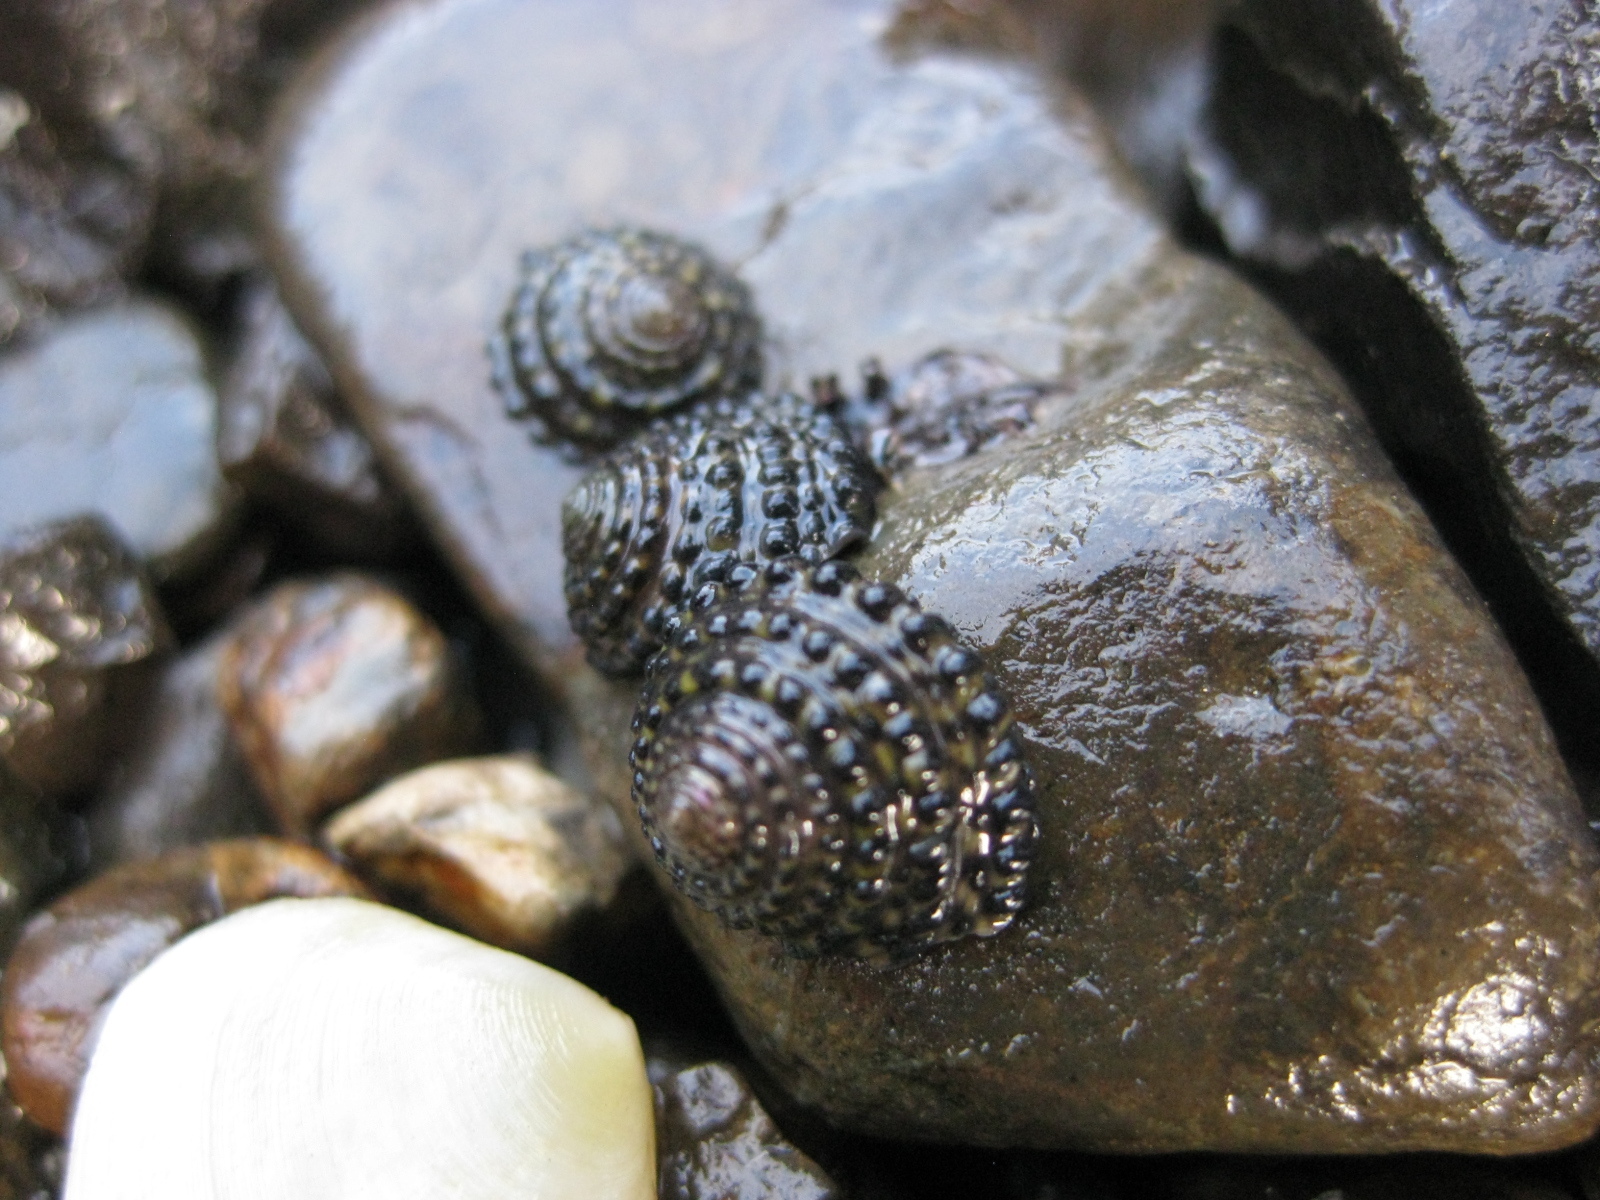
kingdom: Animalia
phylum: Mollusca
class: Gastropoda
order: Trochida
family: Trochidae
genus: Diloma
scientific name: Diloma bicanaliculatum
